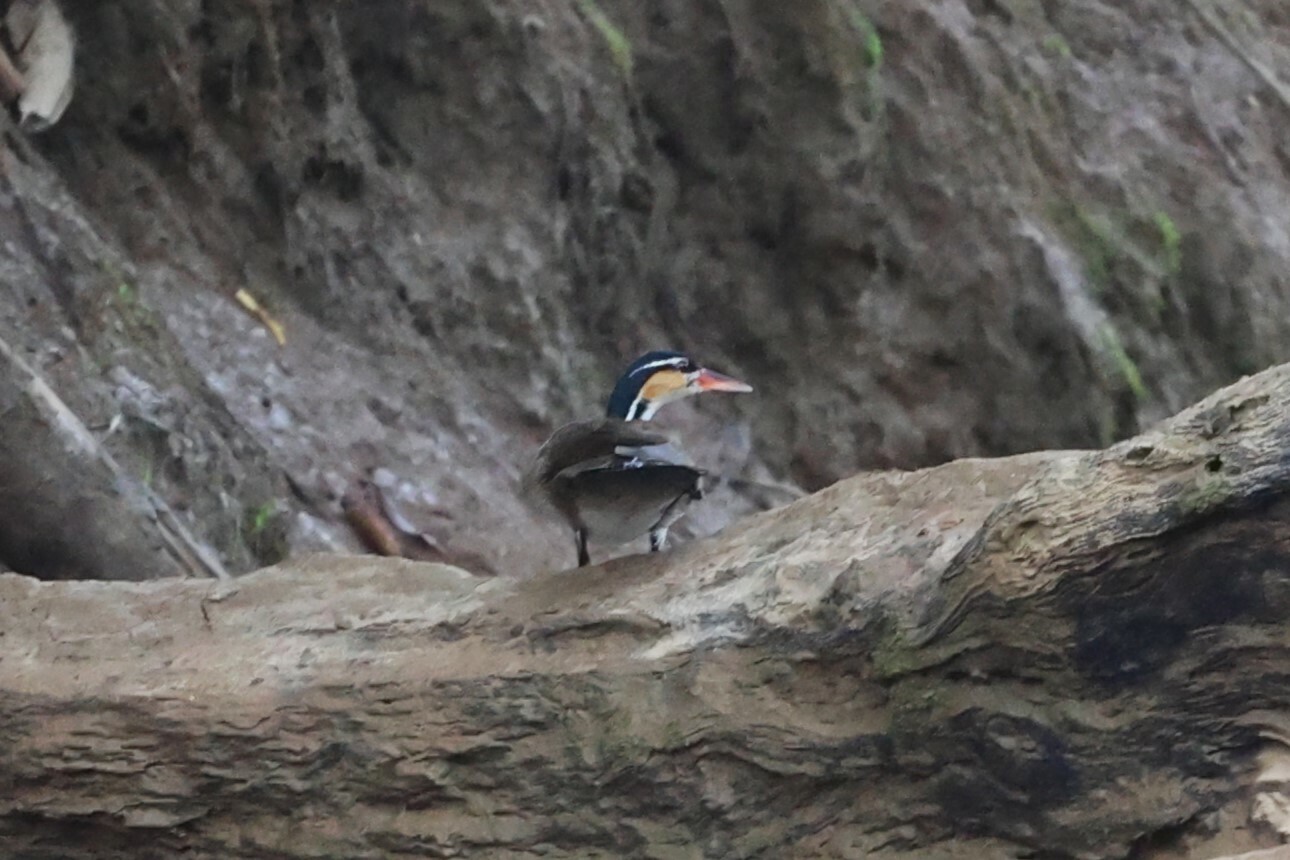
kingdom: Animalia
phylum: Chordata
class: Aves
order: Gruiformes
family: Heliornithidae
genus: Heliornis
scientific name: Heliornis fulica
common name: Sungrebe
